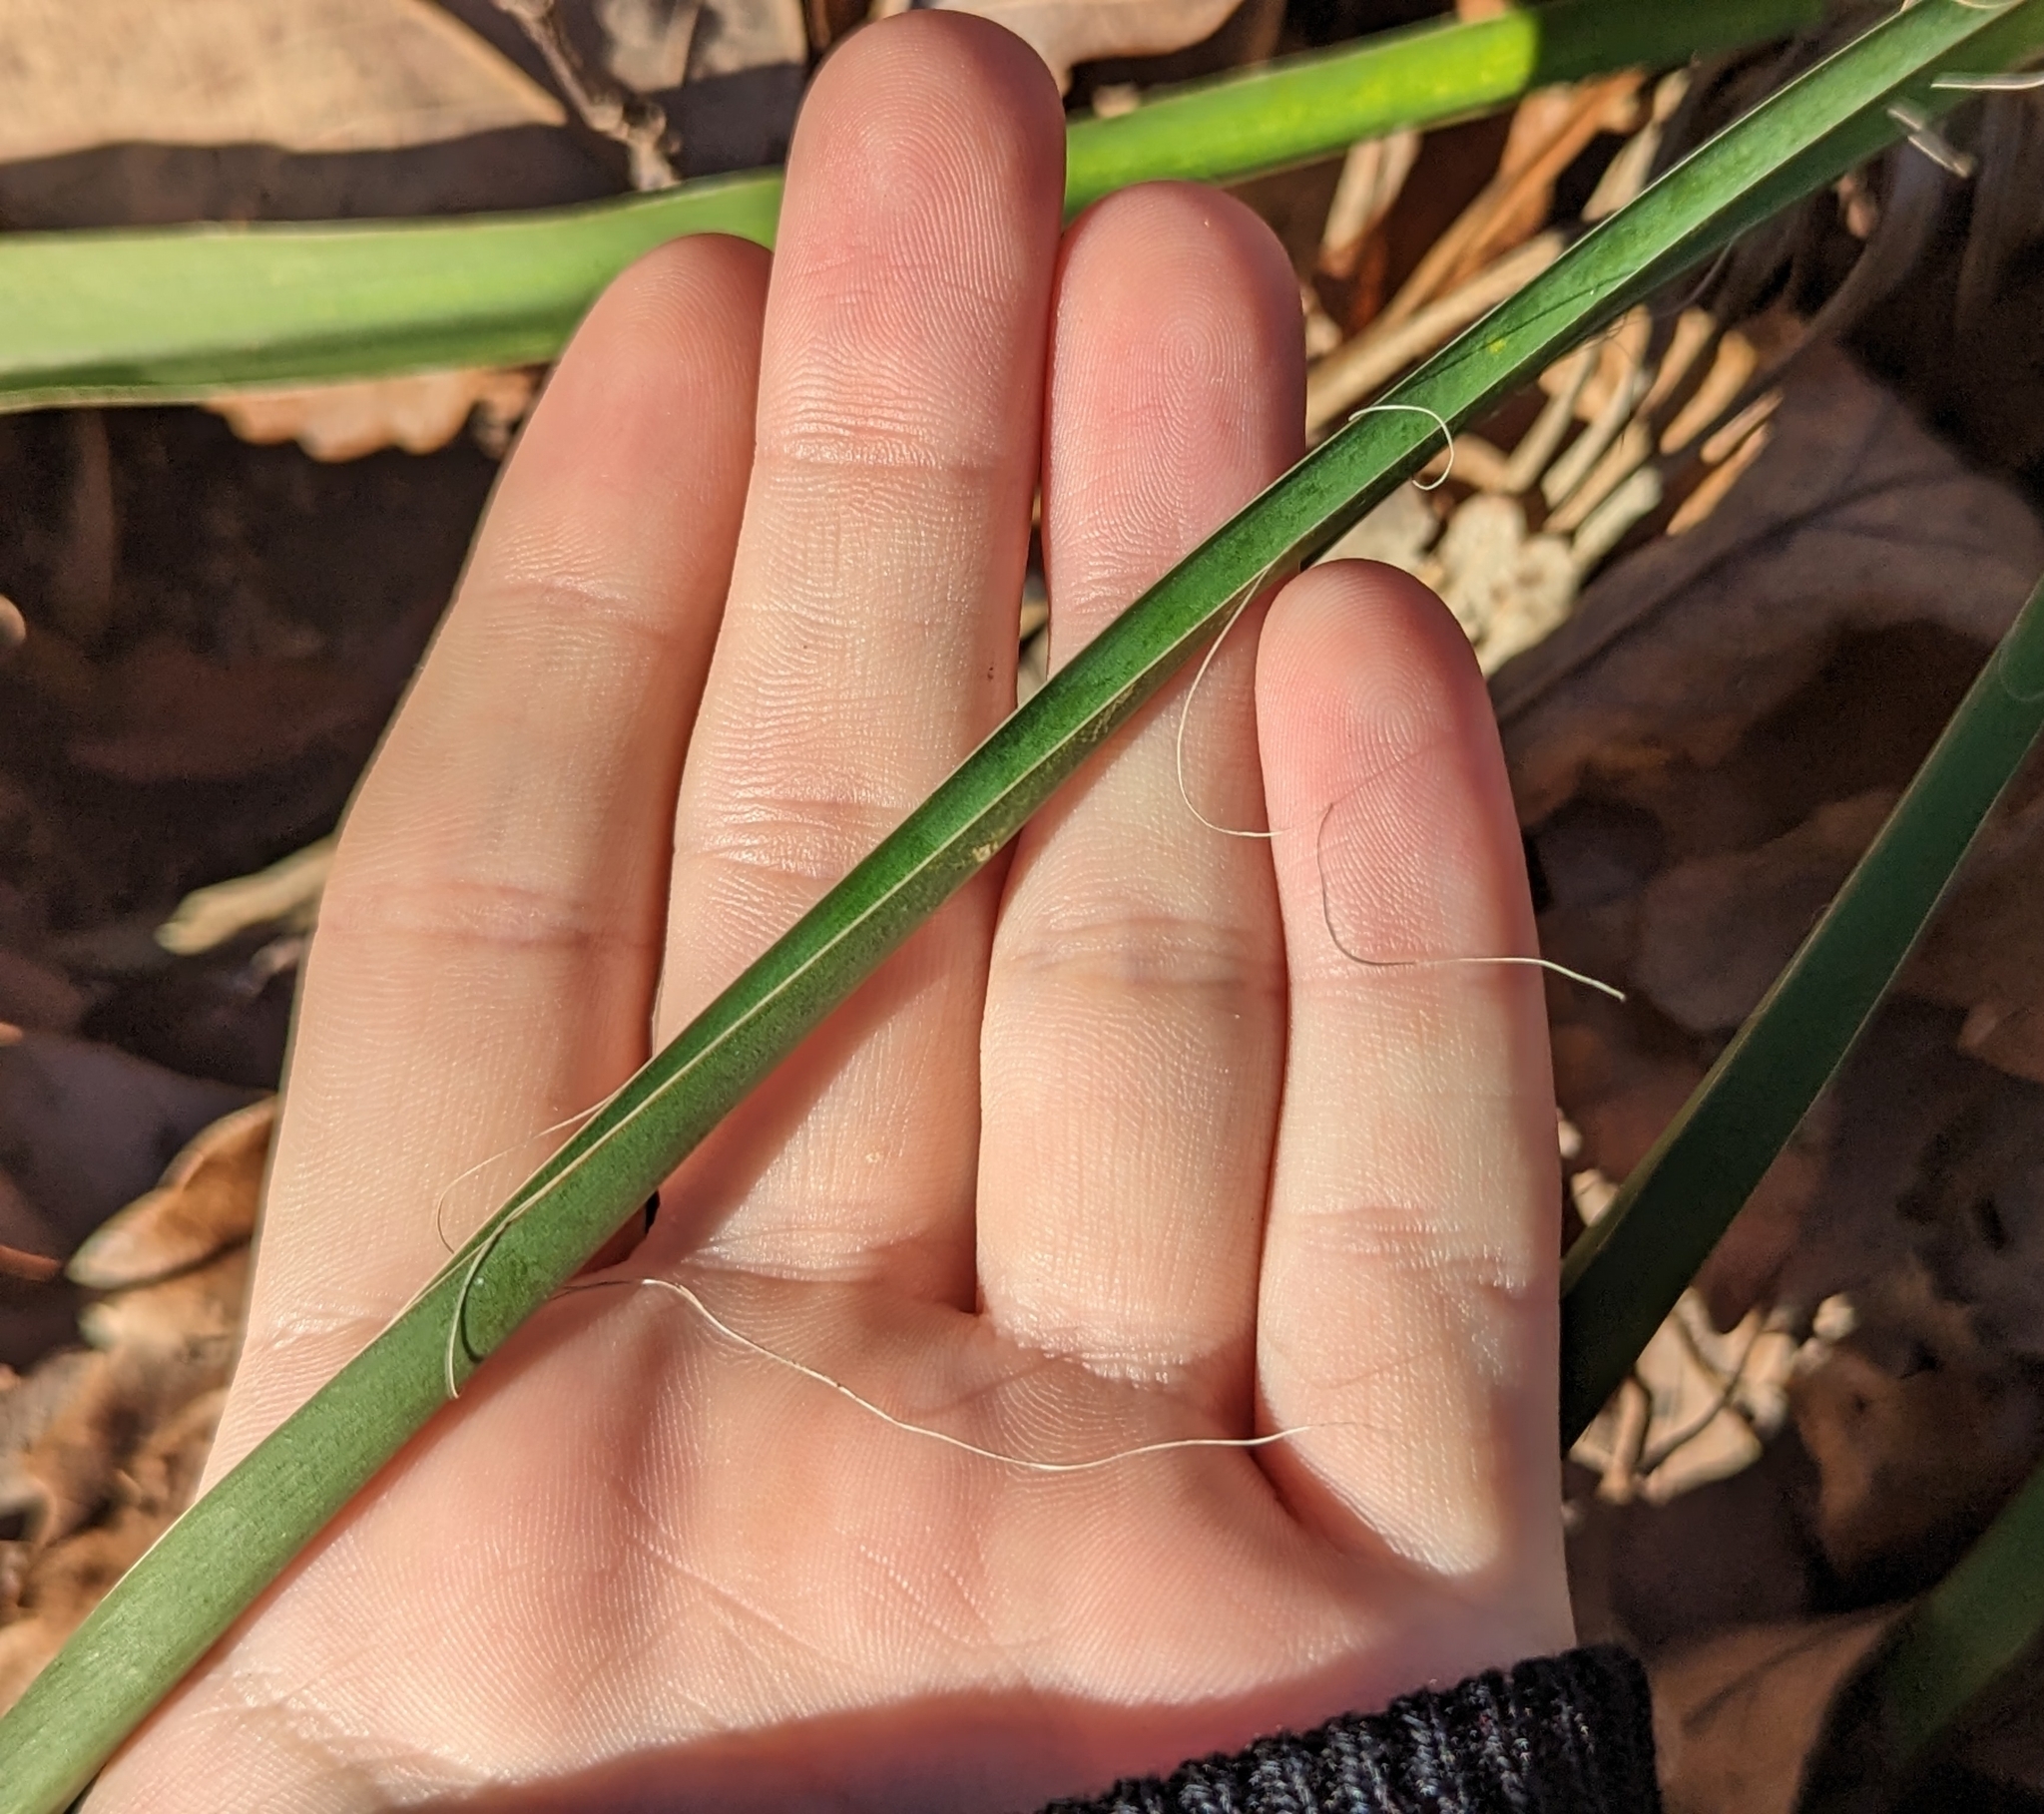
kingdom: Plantae
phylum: Tracheophyta
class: Liliopsida
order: Asparagales
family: Asparagaceae
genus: Yucca
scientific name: Yucca filamentosa
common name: Adam's-needle
